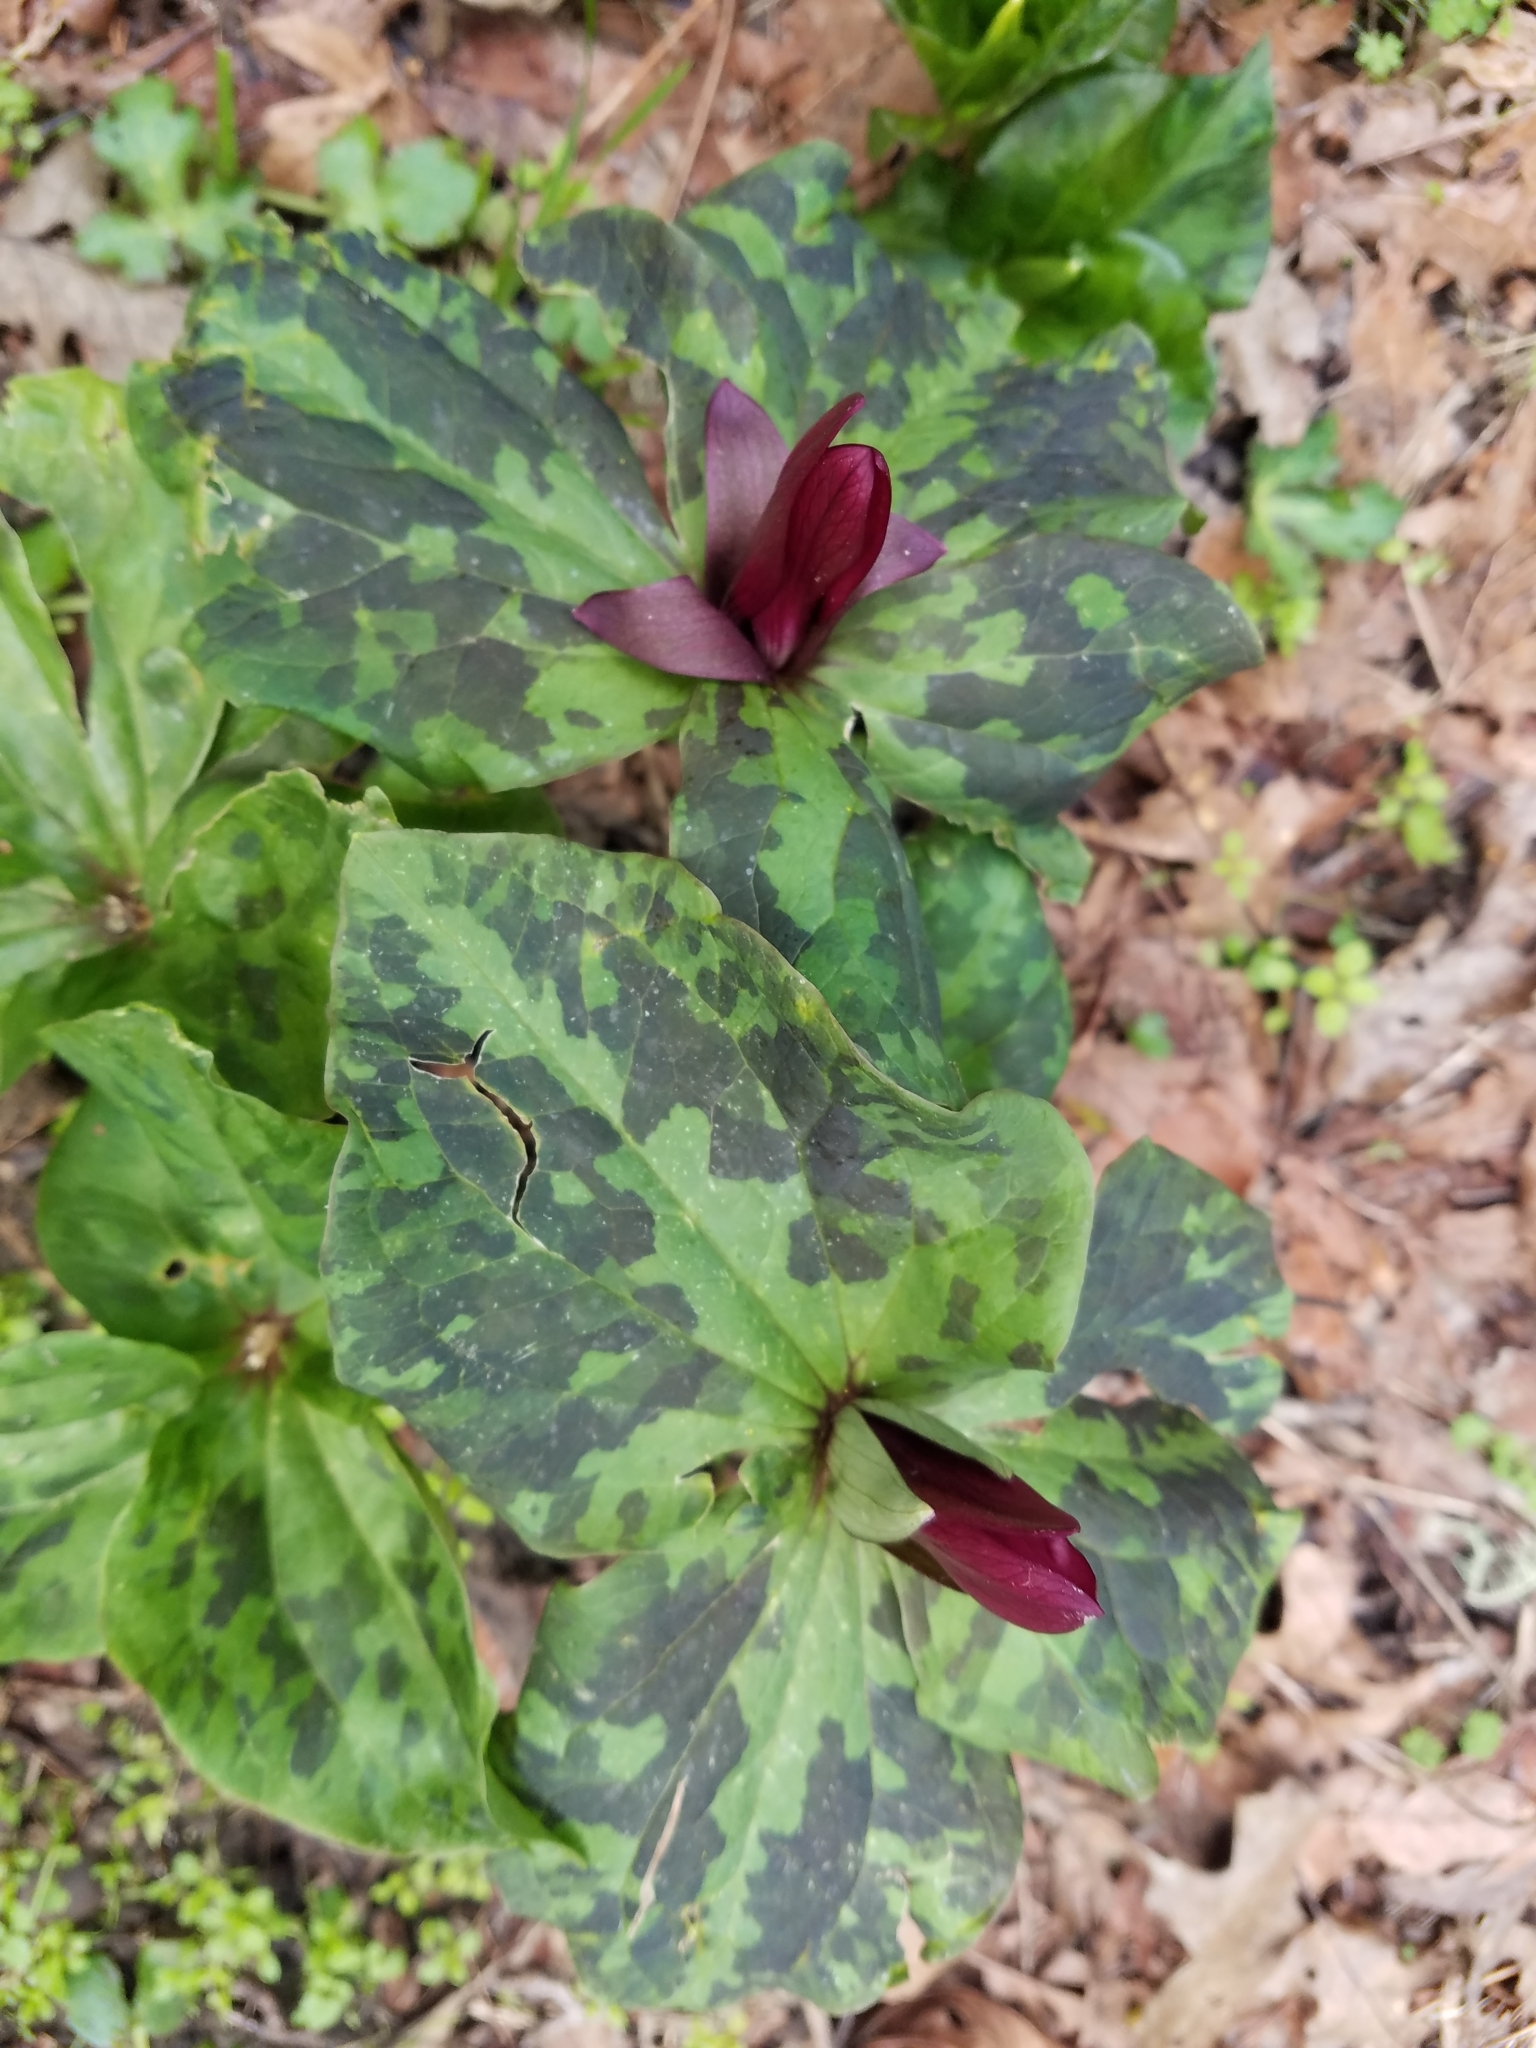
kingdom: Plantae
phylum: Tracheophyta
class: Liliopsida
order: Liliales
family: Melanthiaceae
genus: Trillium
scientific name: Trillium chloropetalum
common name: Giant trillium
